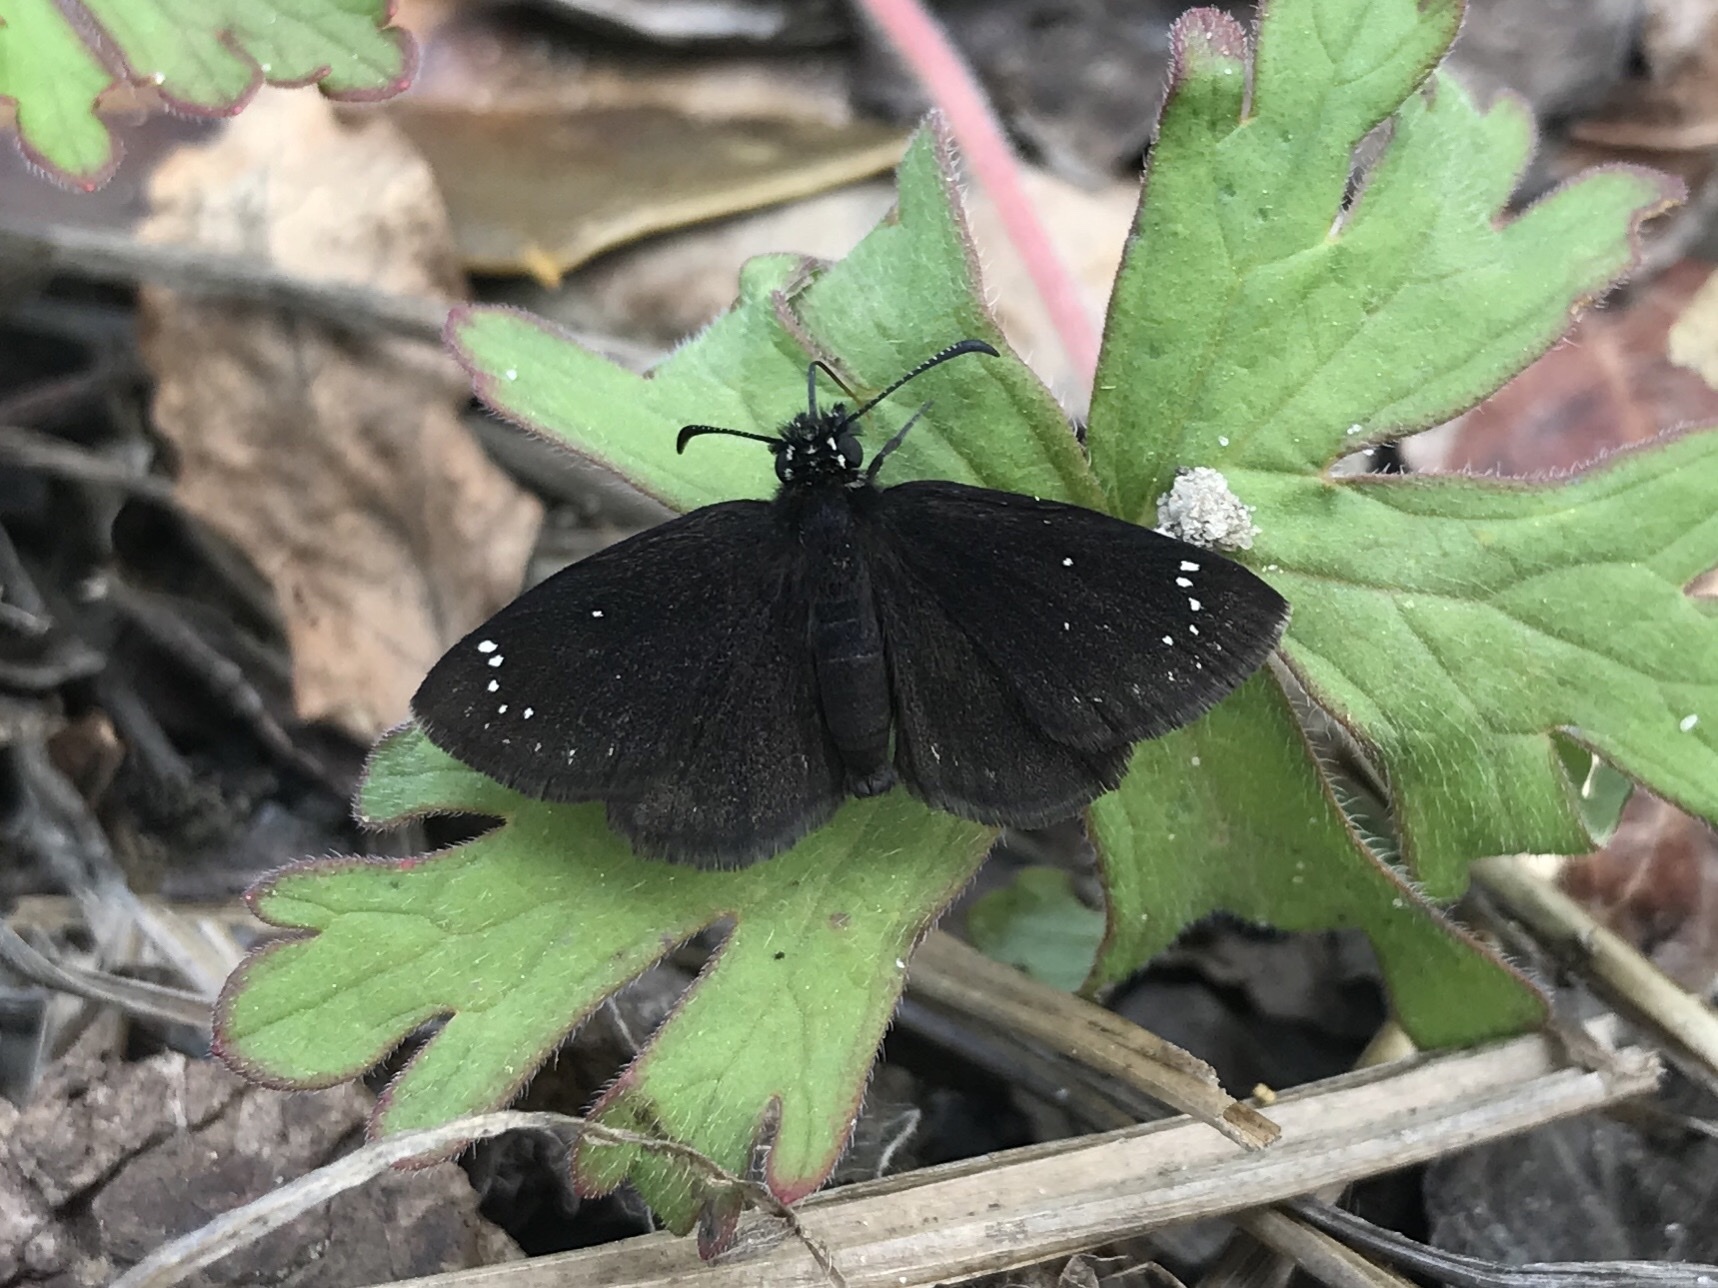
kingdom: Animalia
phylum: Arthropoda
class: Insecta
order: Lepidoptera
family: Hesperiidae
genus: Pholisora
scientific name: Pholisora catullus
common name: Common sootywing
